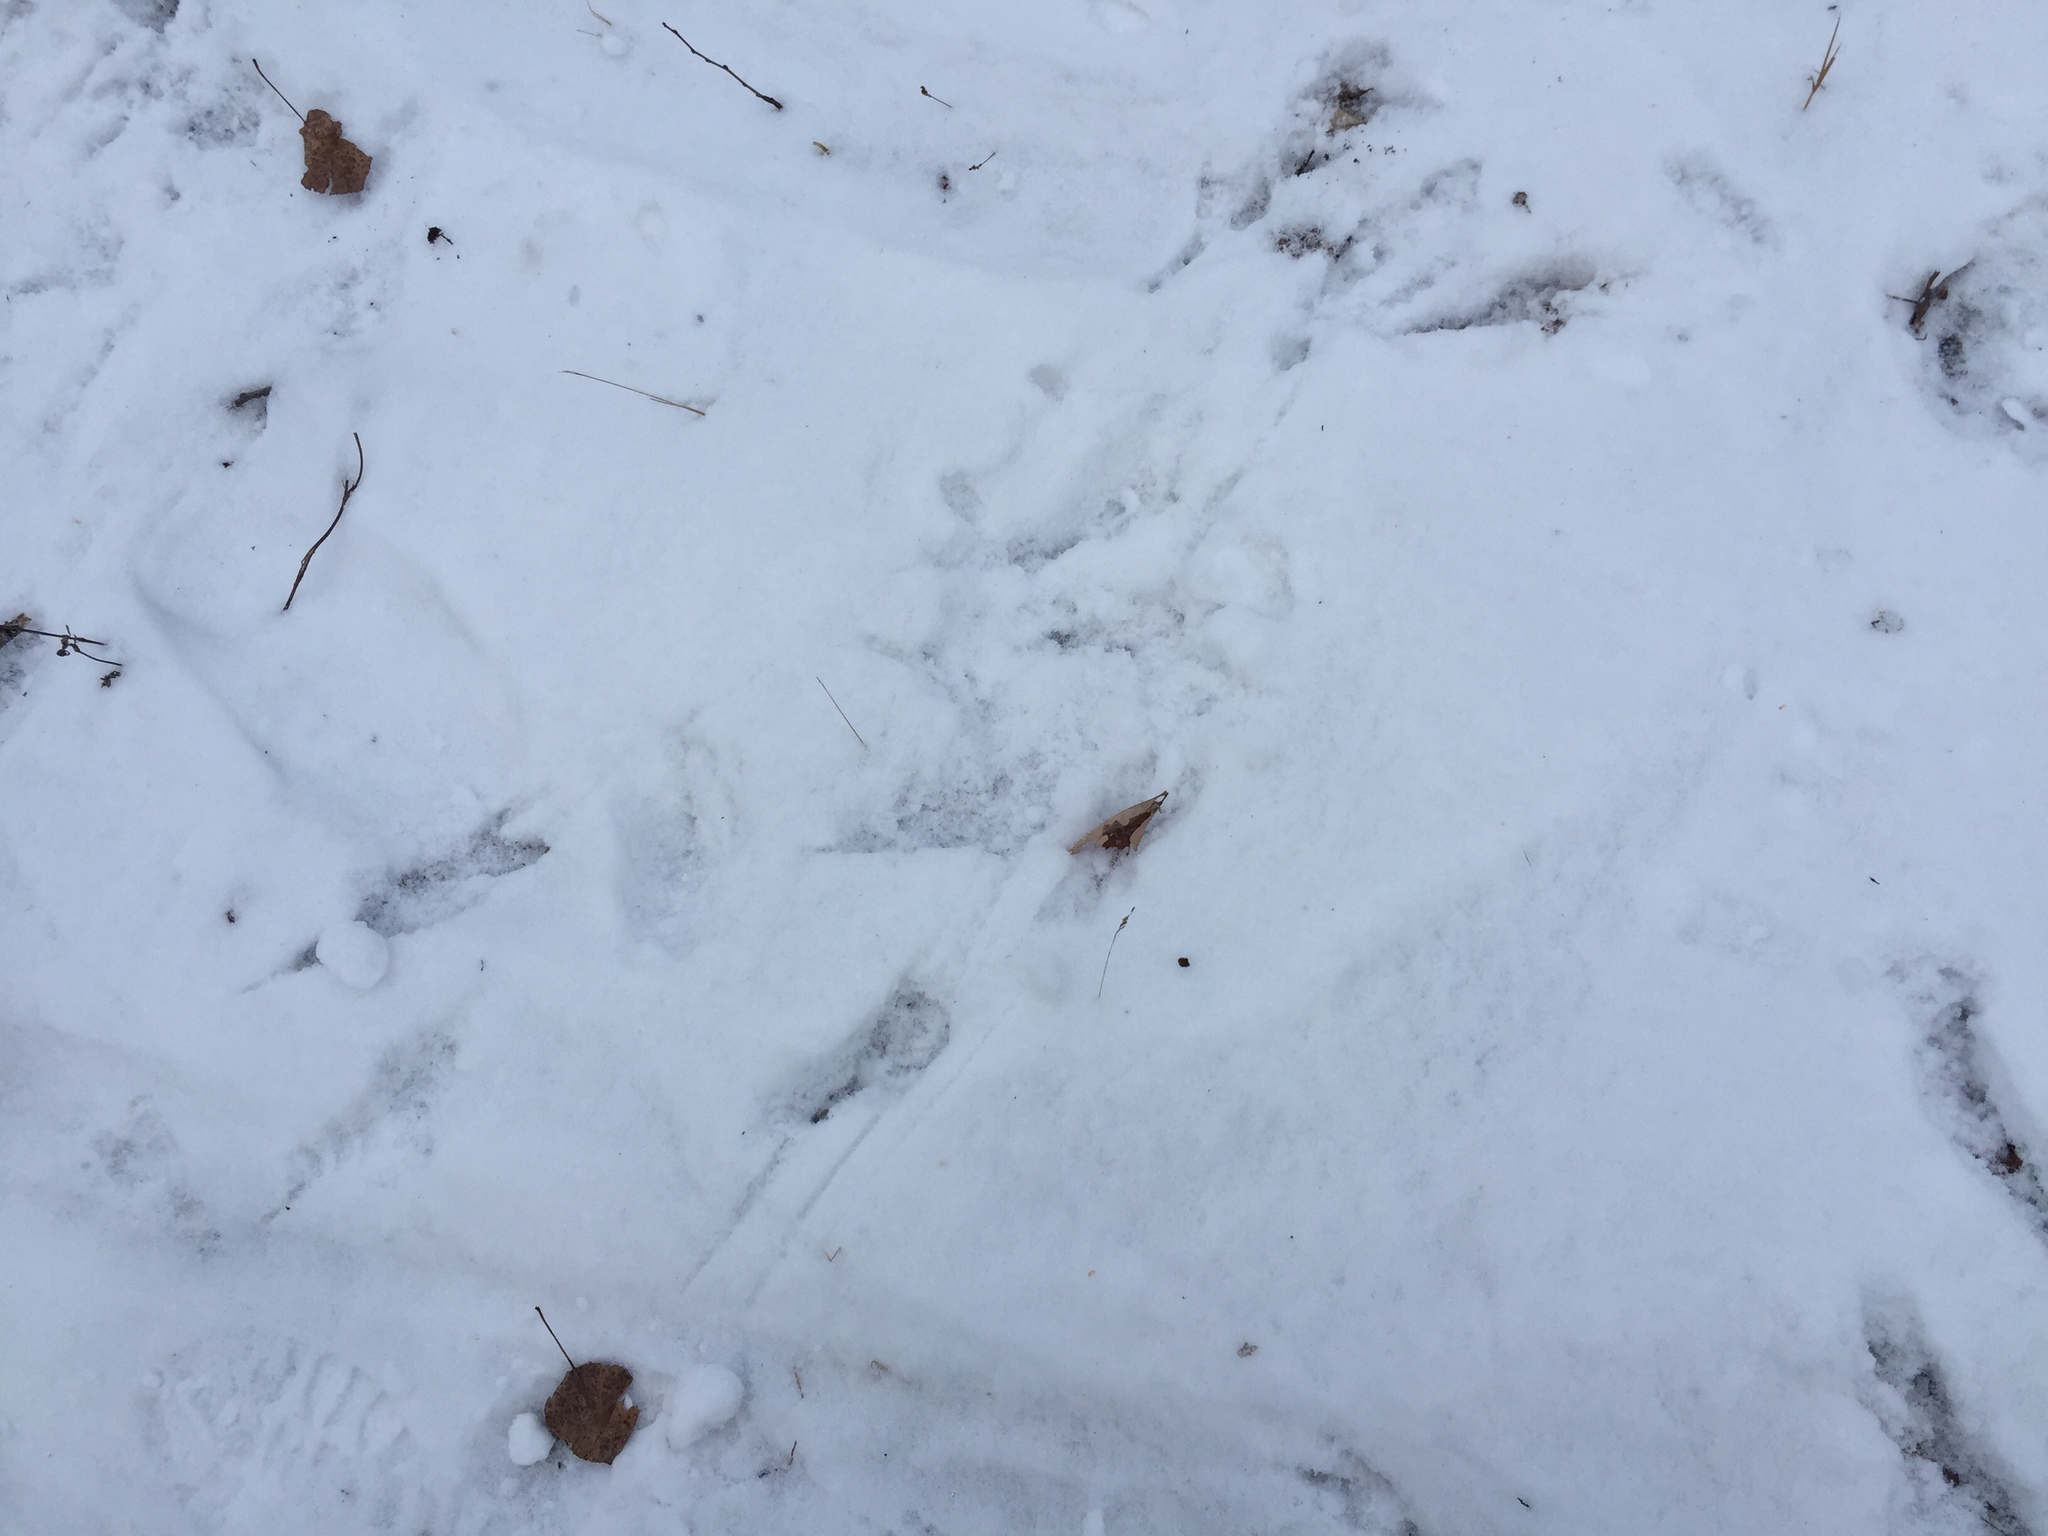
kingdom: Animalia
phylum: Chordata
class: Aves
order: Passeriformes
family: Corvidae
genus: Corvus
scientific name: Corvus corax
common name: Common raven
